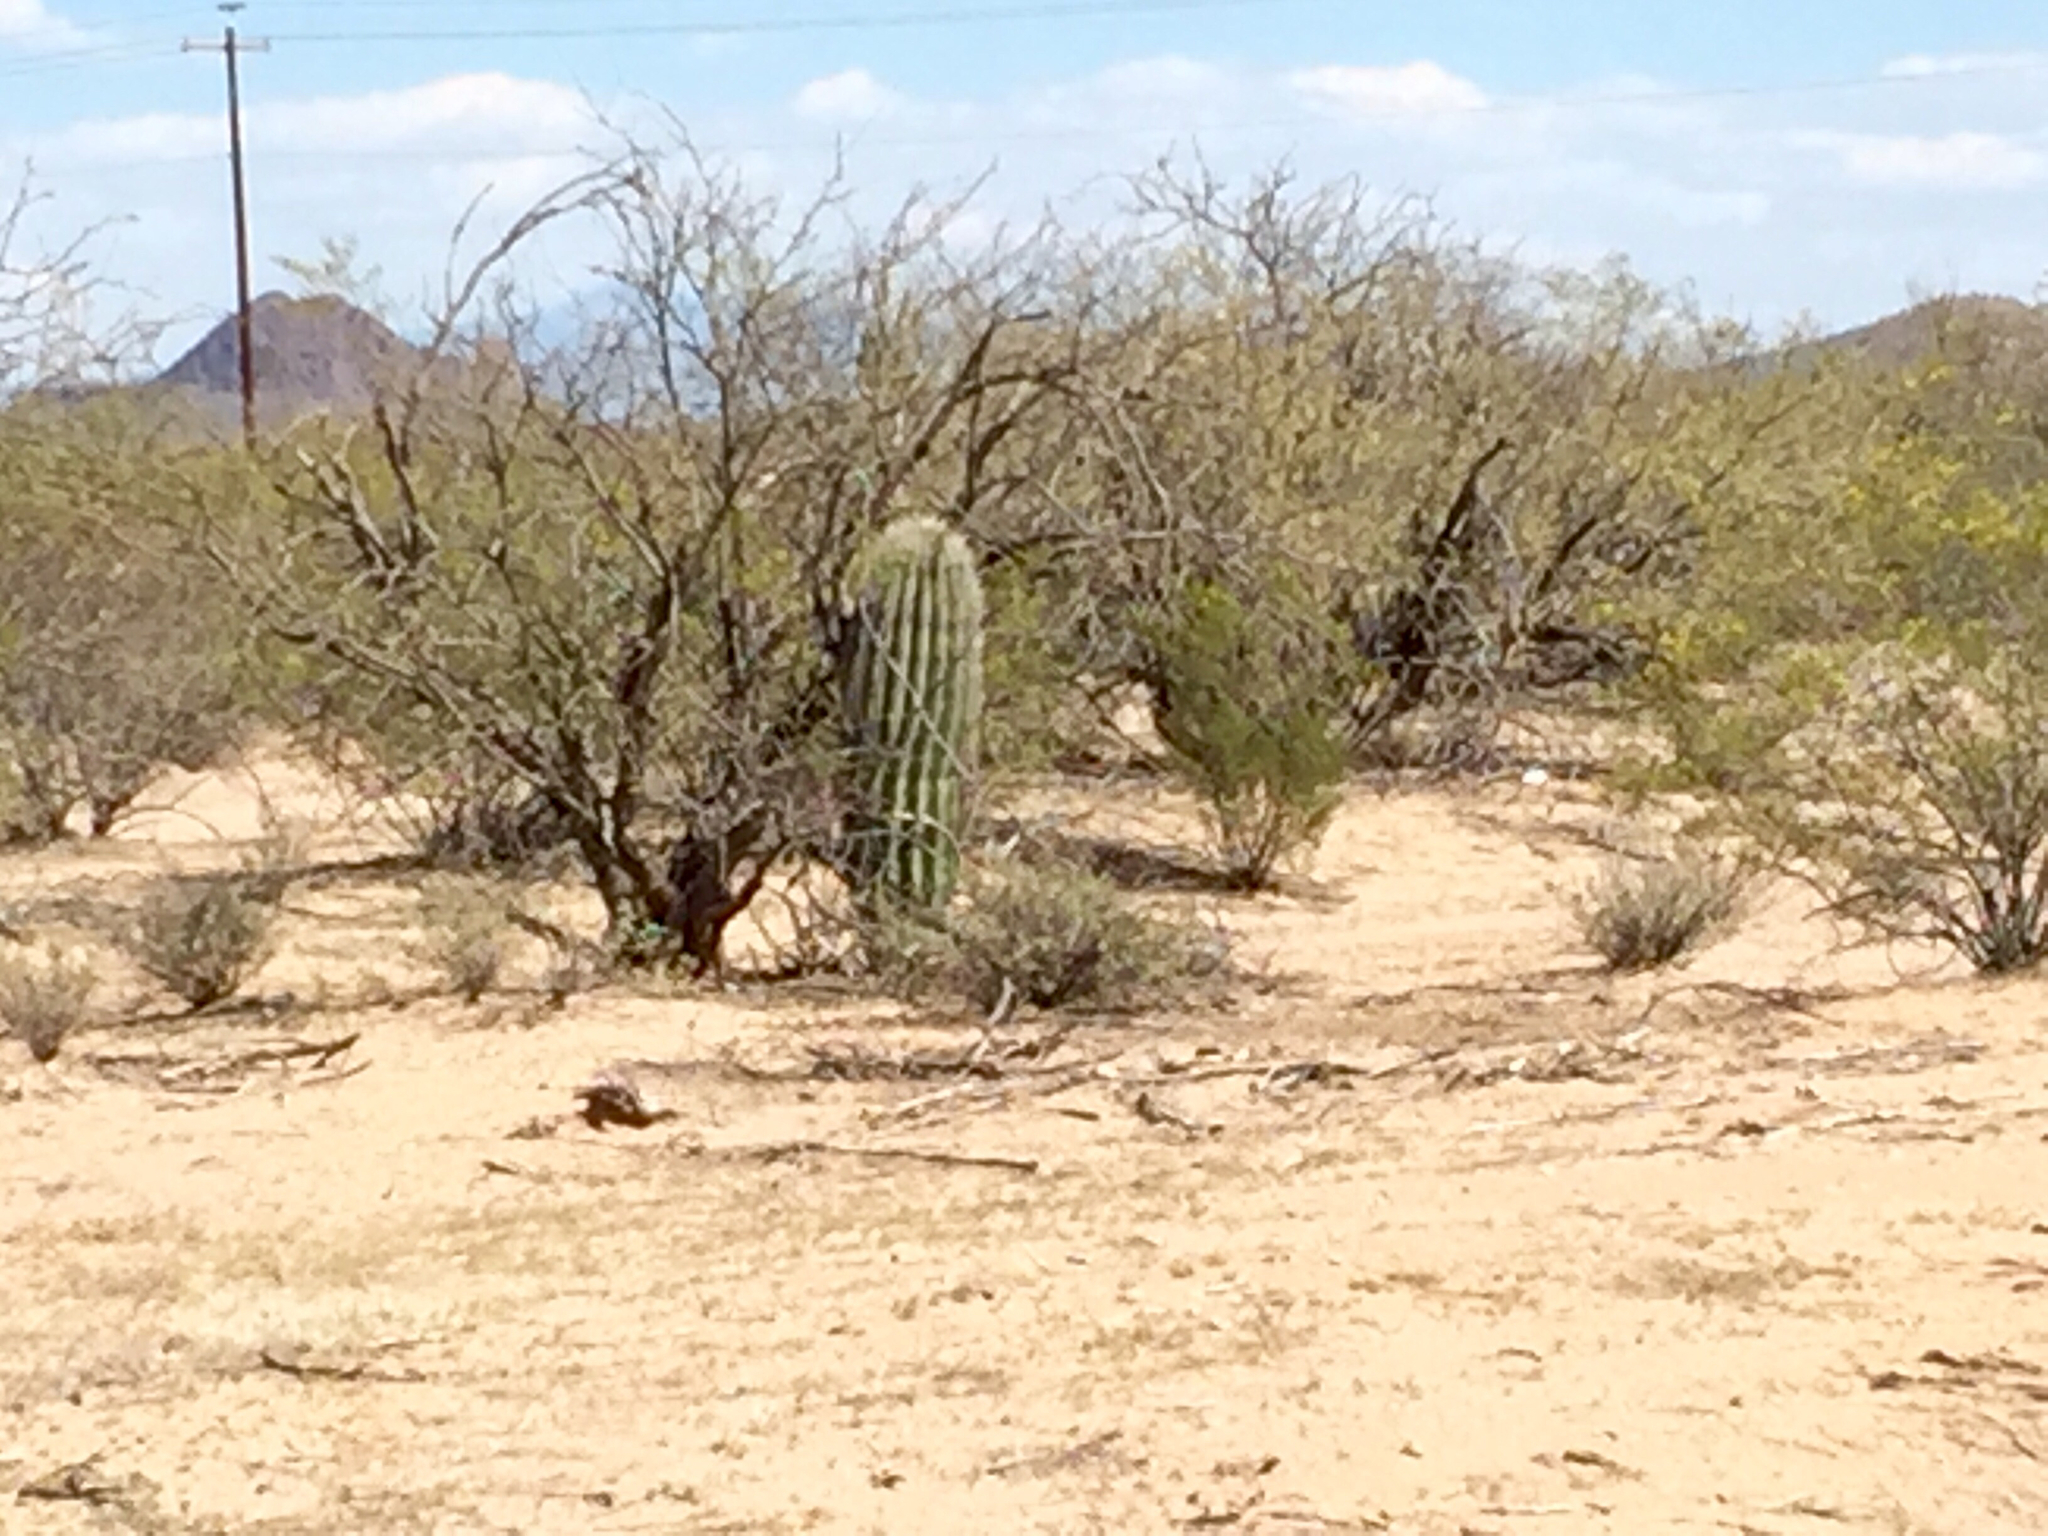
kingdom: Plantae
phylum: Tracheophyta
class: Magnoliopsida
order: Caryophyllales
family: Cactaceae
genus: Carnegiea
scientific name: Carnegiea gigantea
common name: Saguaro
